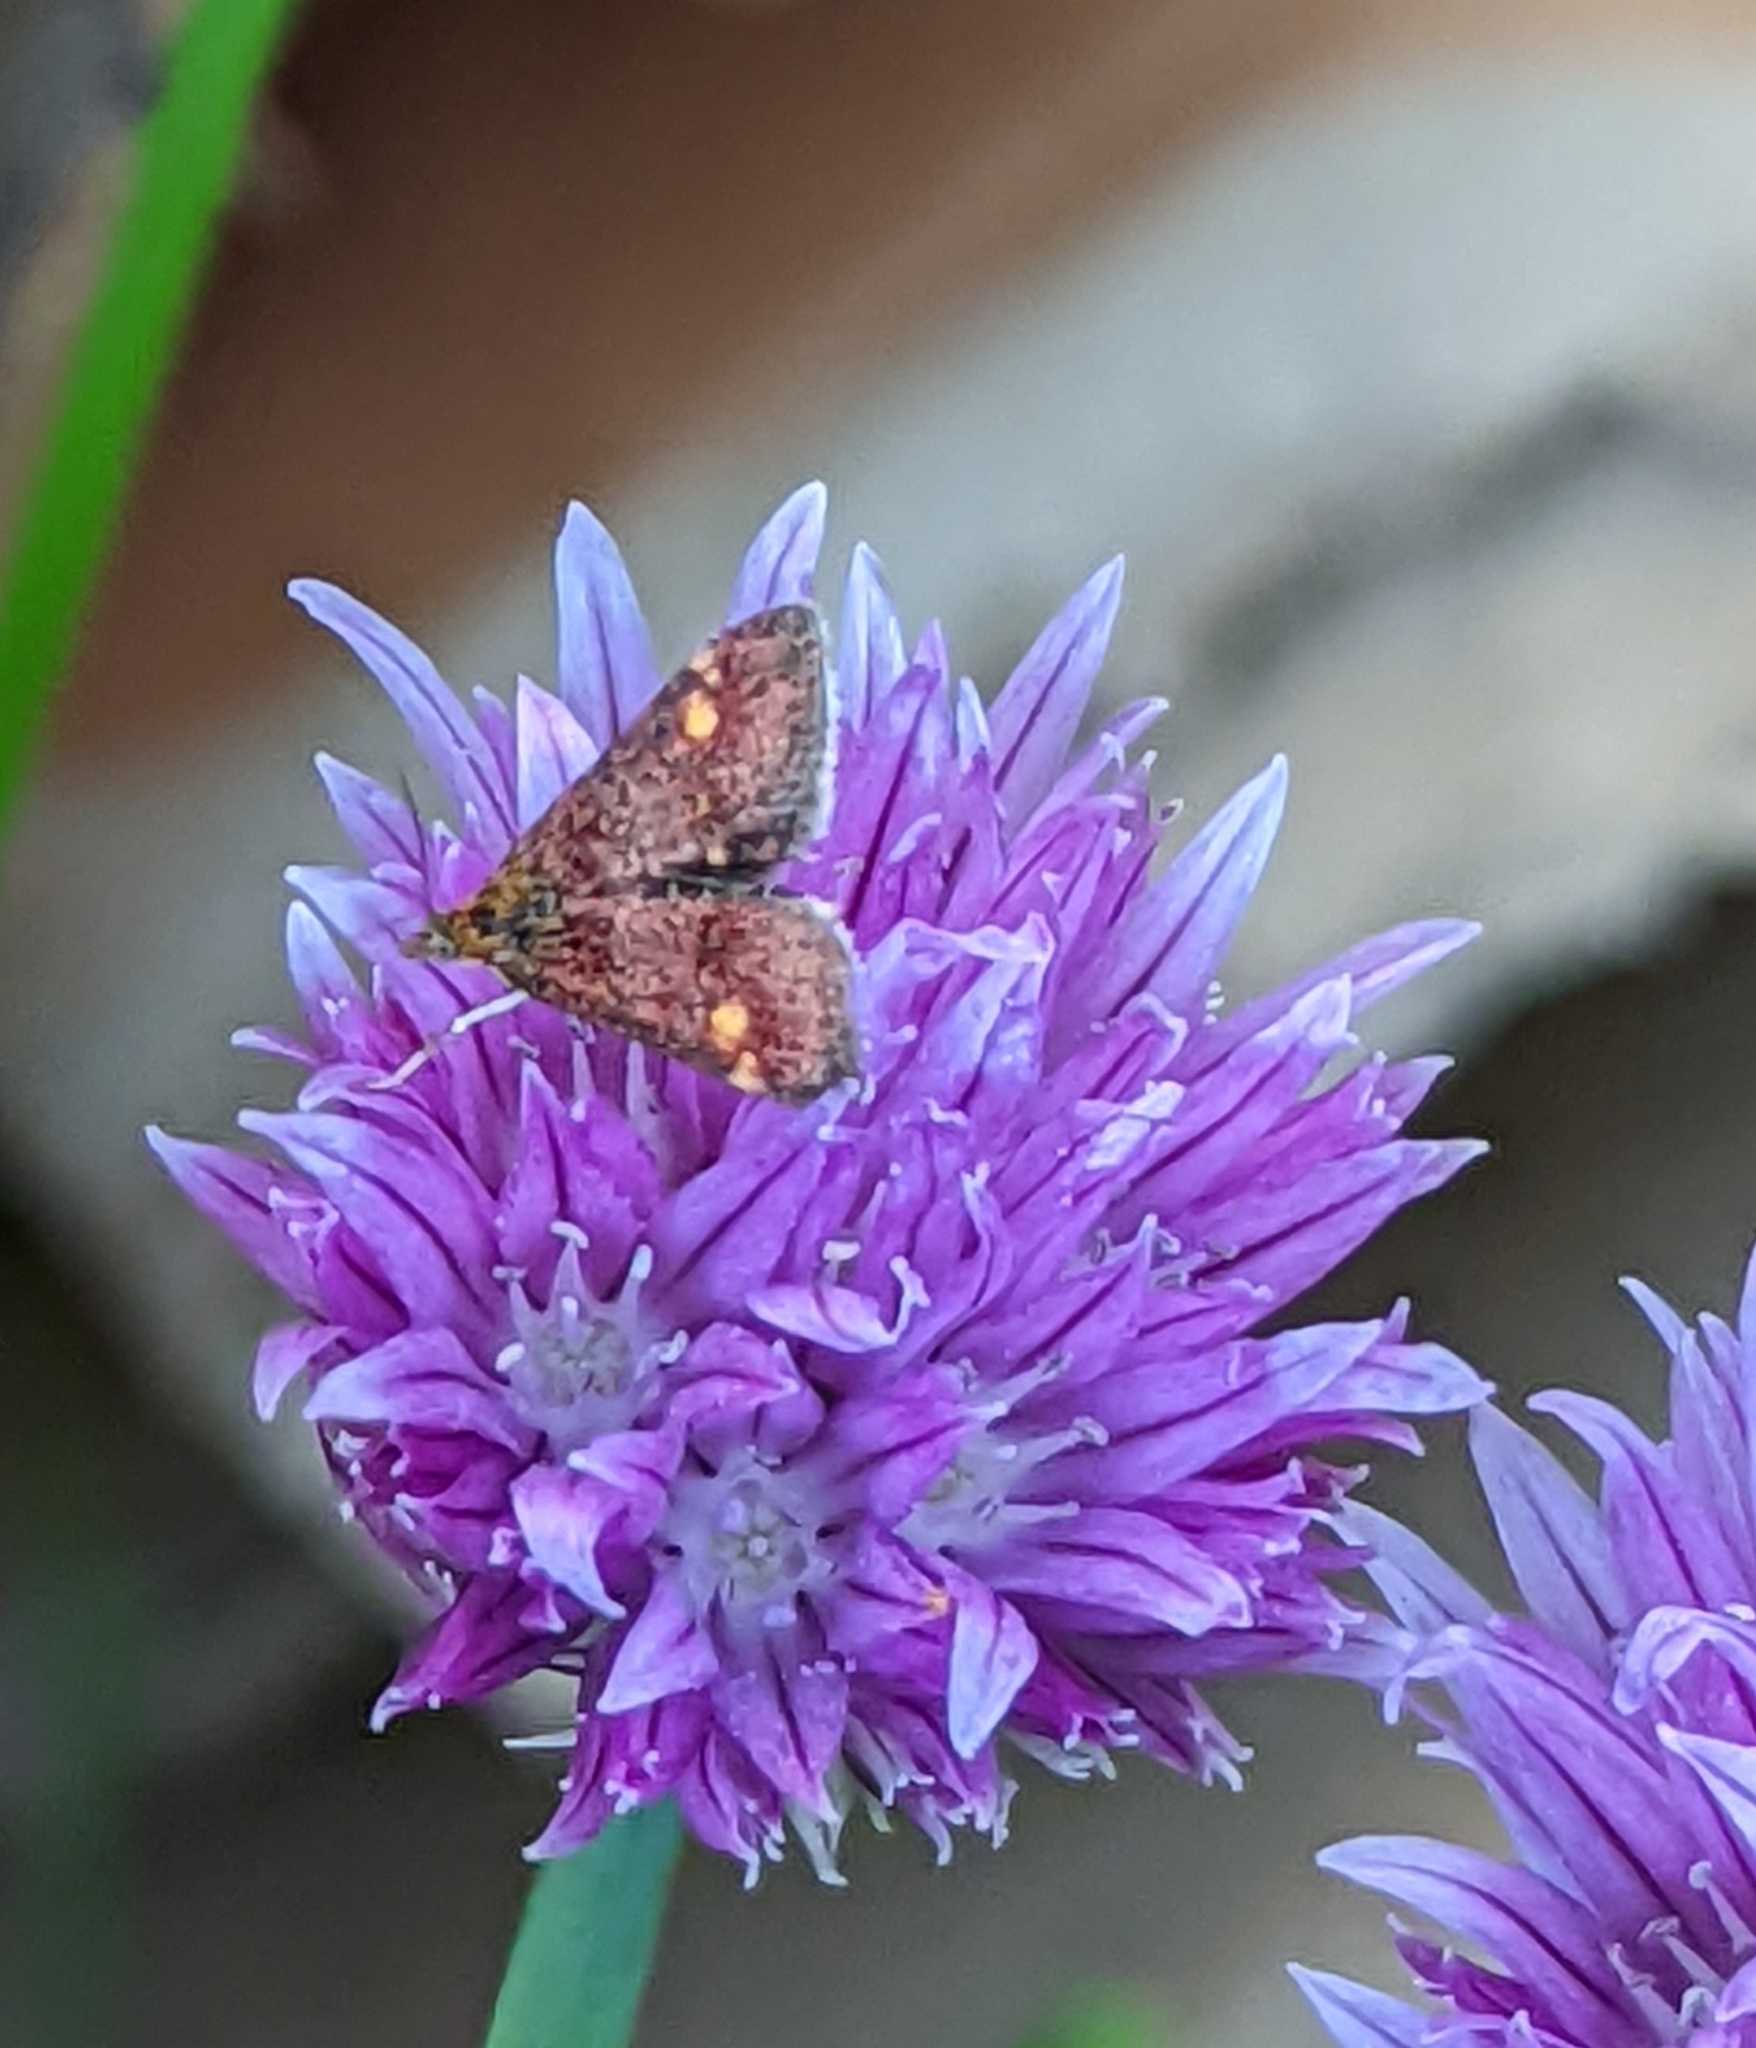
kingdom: Animalia
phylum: Arthropoda
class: Insecta
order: Lepidoptera
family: Crambidae
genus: Pyrausta
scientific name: Pyrausta aurata
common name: Small purple & gold
